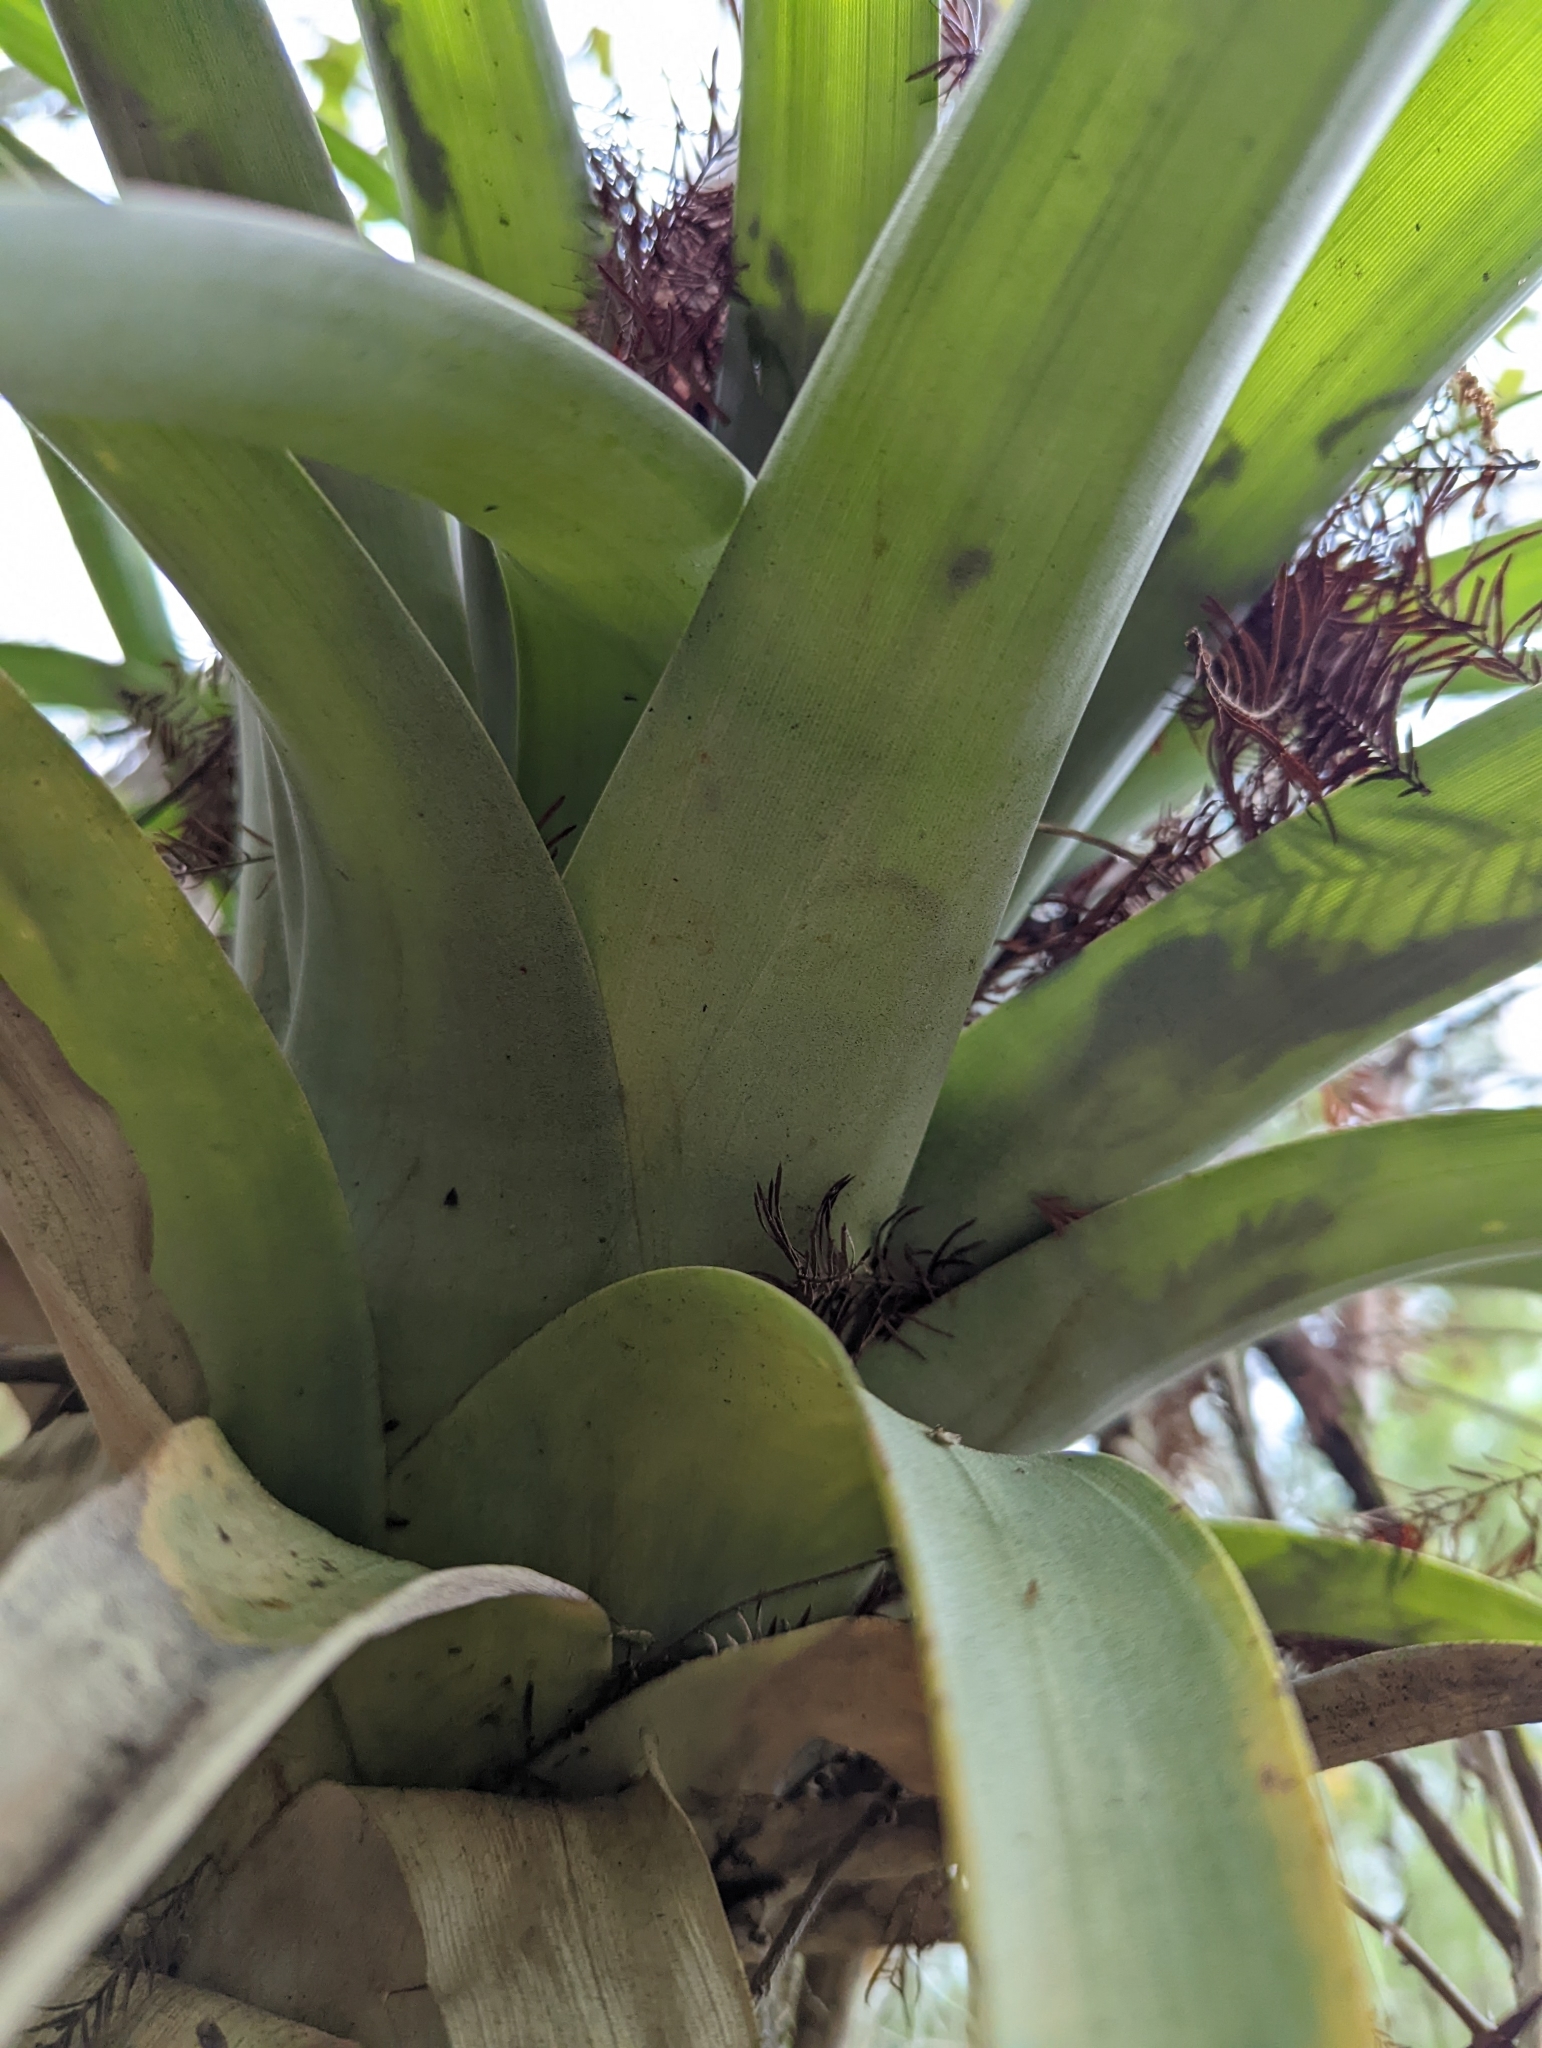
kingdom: Plantae
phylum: Tracheophyta
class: Liliopsida
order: Poales
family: Bromeliaceae
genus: Tillandsia
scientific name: Tillandsia utriculata
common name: Wild pine
